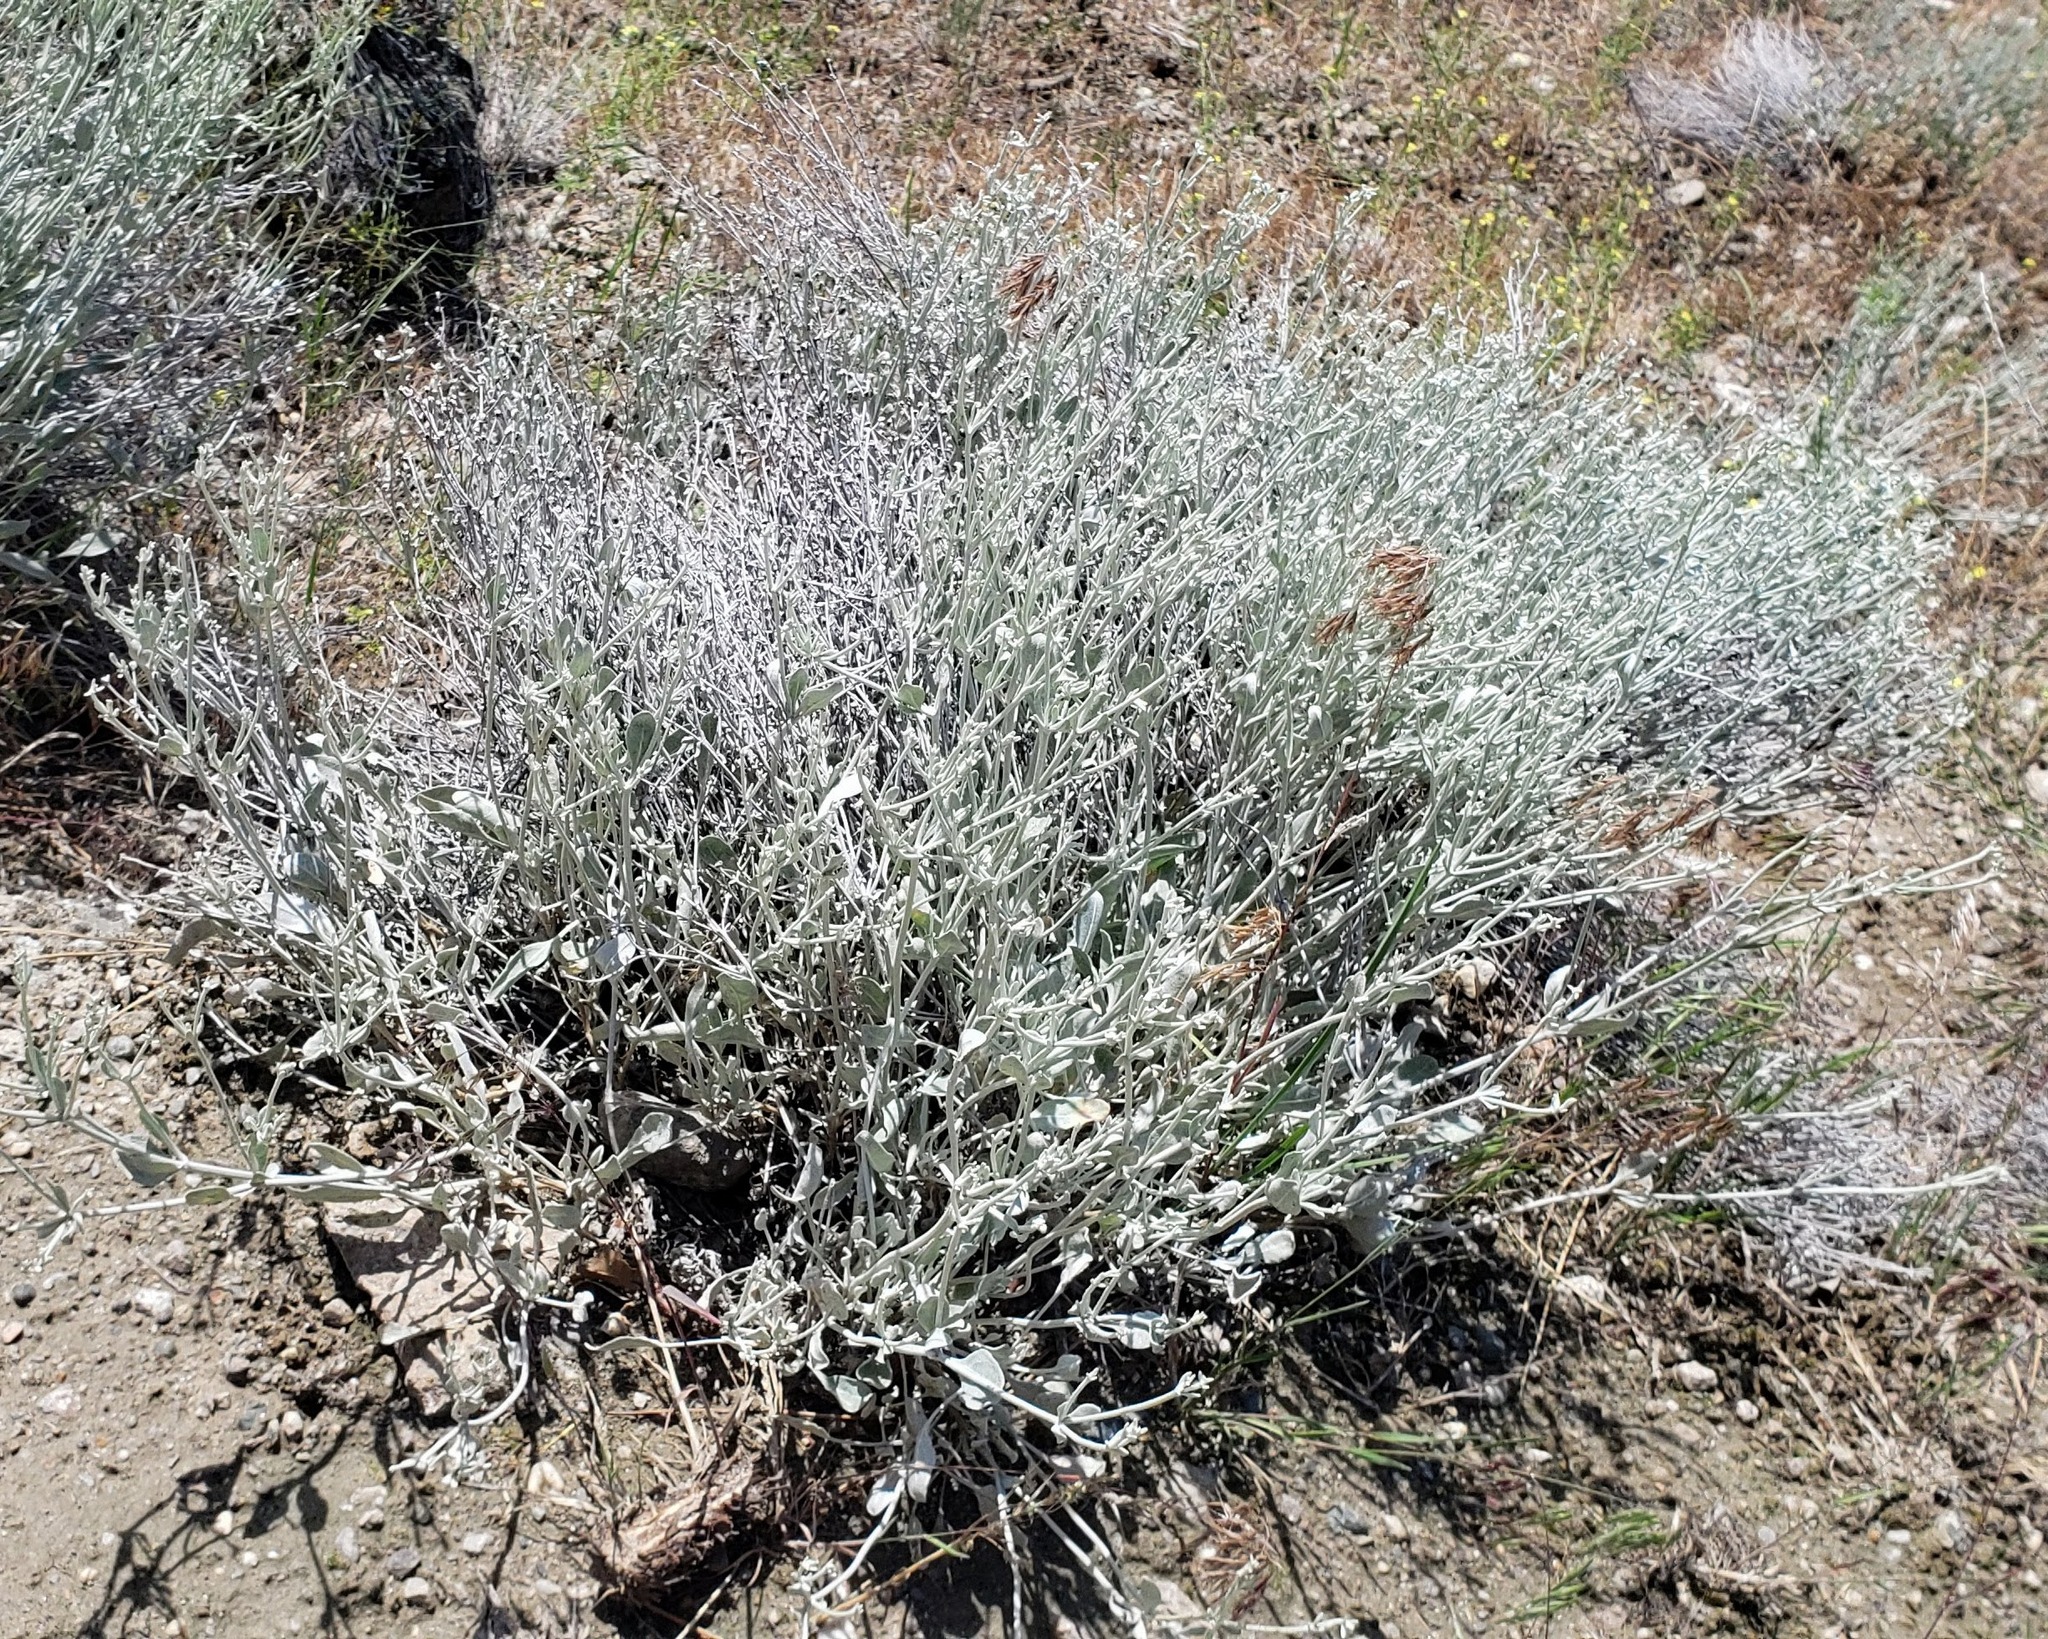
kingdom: Plantae
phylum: Tracheophyta
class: Magnoliopsida
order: Caryophyllales
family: Polygonaceae
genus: Eriogonum
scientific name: Eriogonum niveum
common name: Snow wild buckwheat
